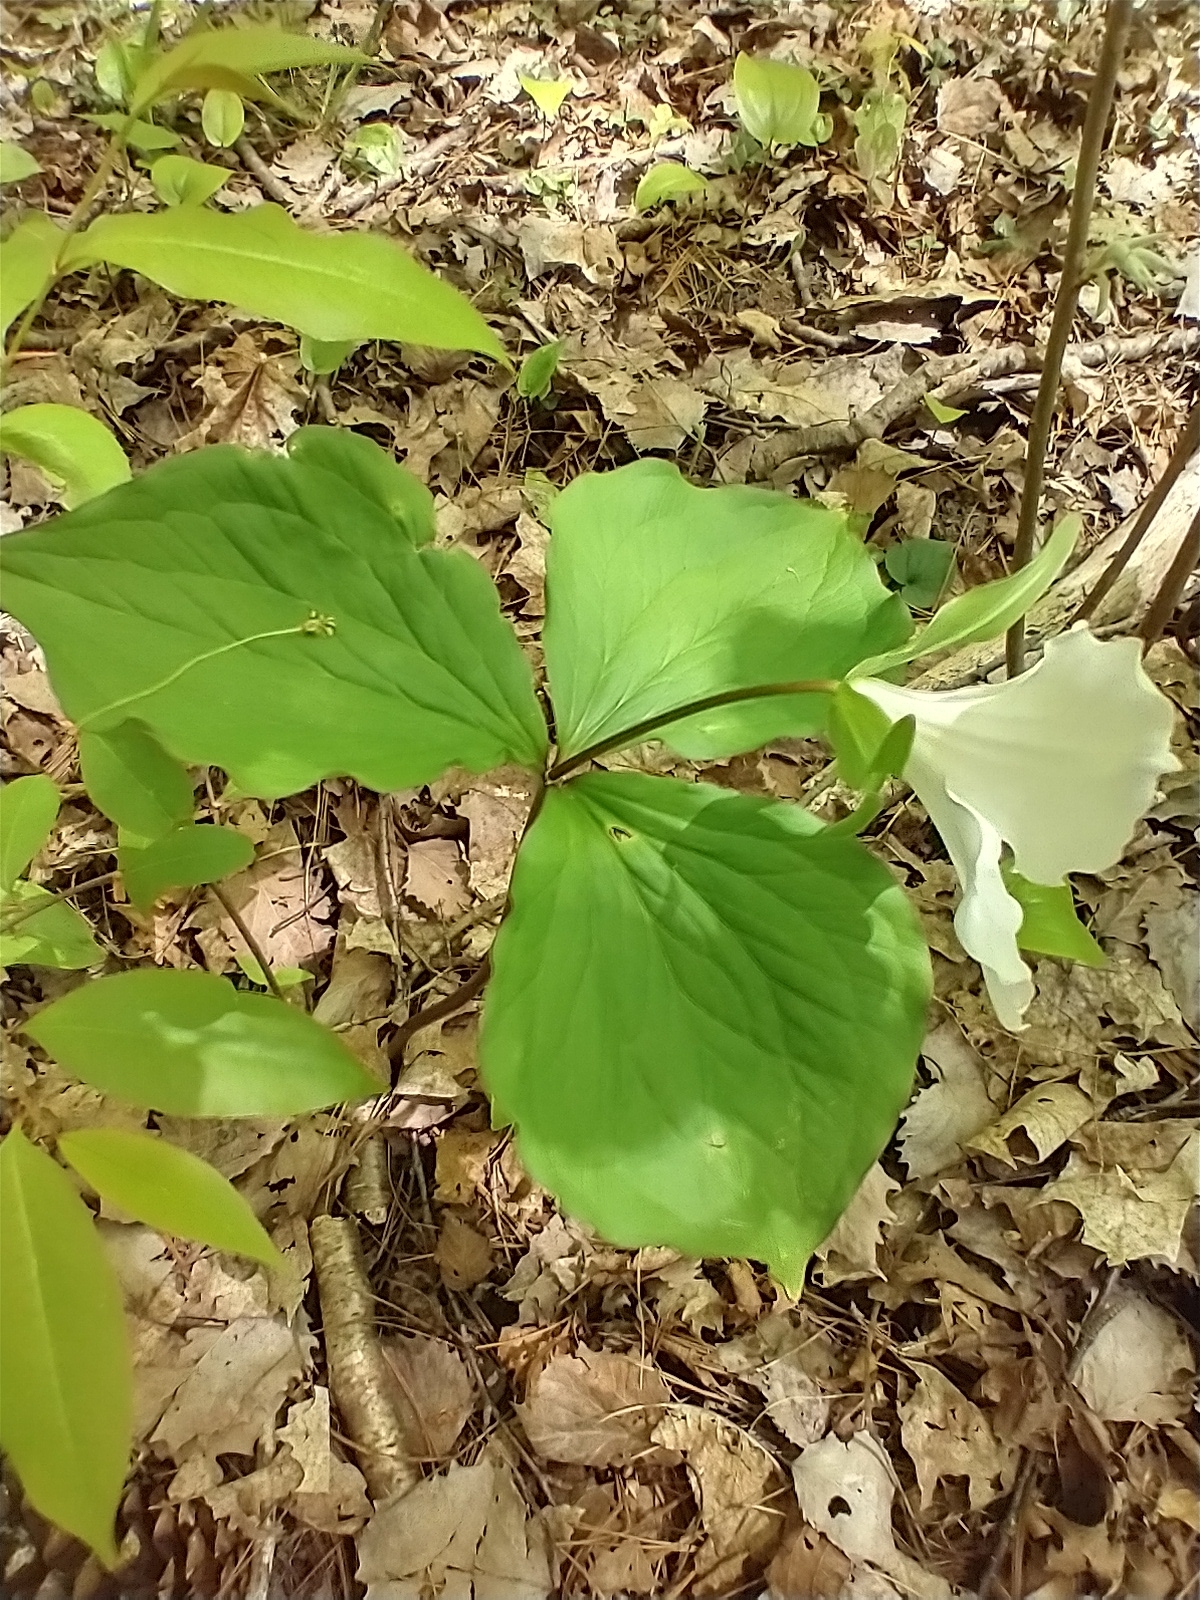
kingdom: Plantae
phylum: Tracheophyta
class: Liliopsida
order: Liliales
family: Melanthiaceae
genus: Trillium
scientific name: Trillium grandiflorum
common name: Great white trillium
